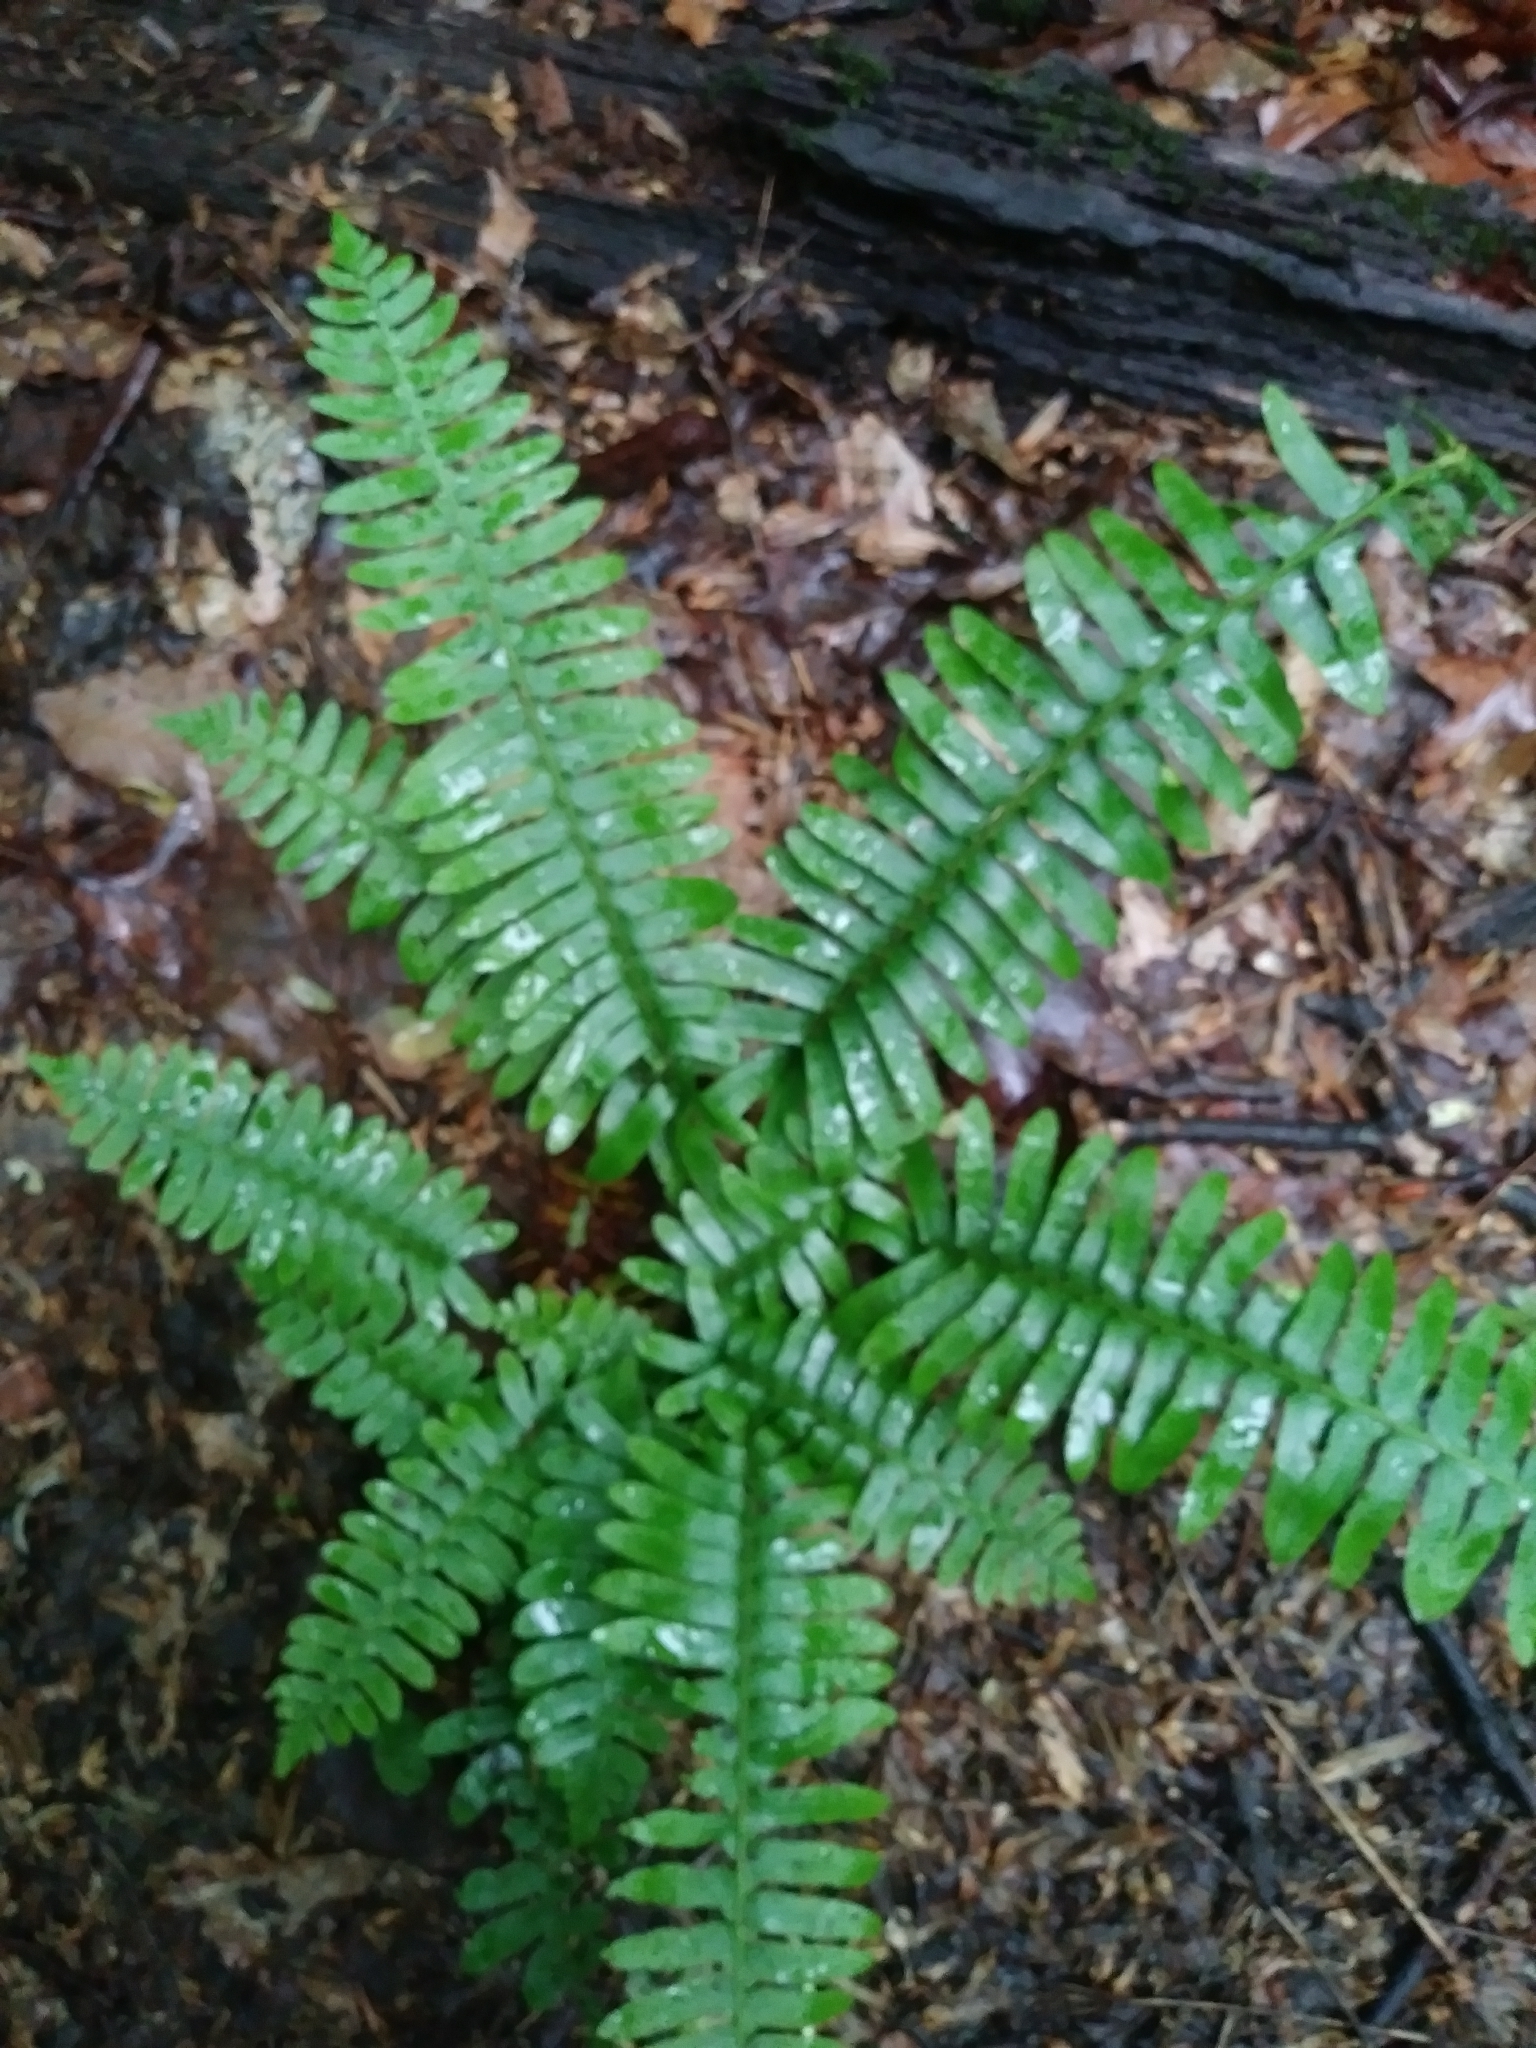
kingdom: Plantae
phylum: Tracheophyta
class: Polypodiopsida
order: Polypodiales
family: Dryopteridaceae
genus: Polystichum
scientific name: Polystichum acrostichoides
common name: Christmas fern
